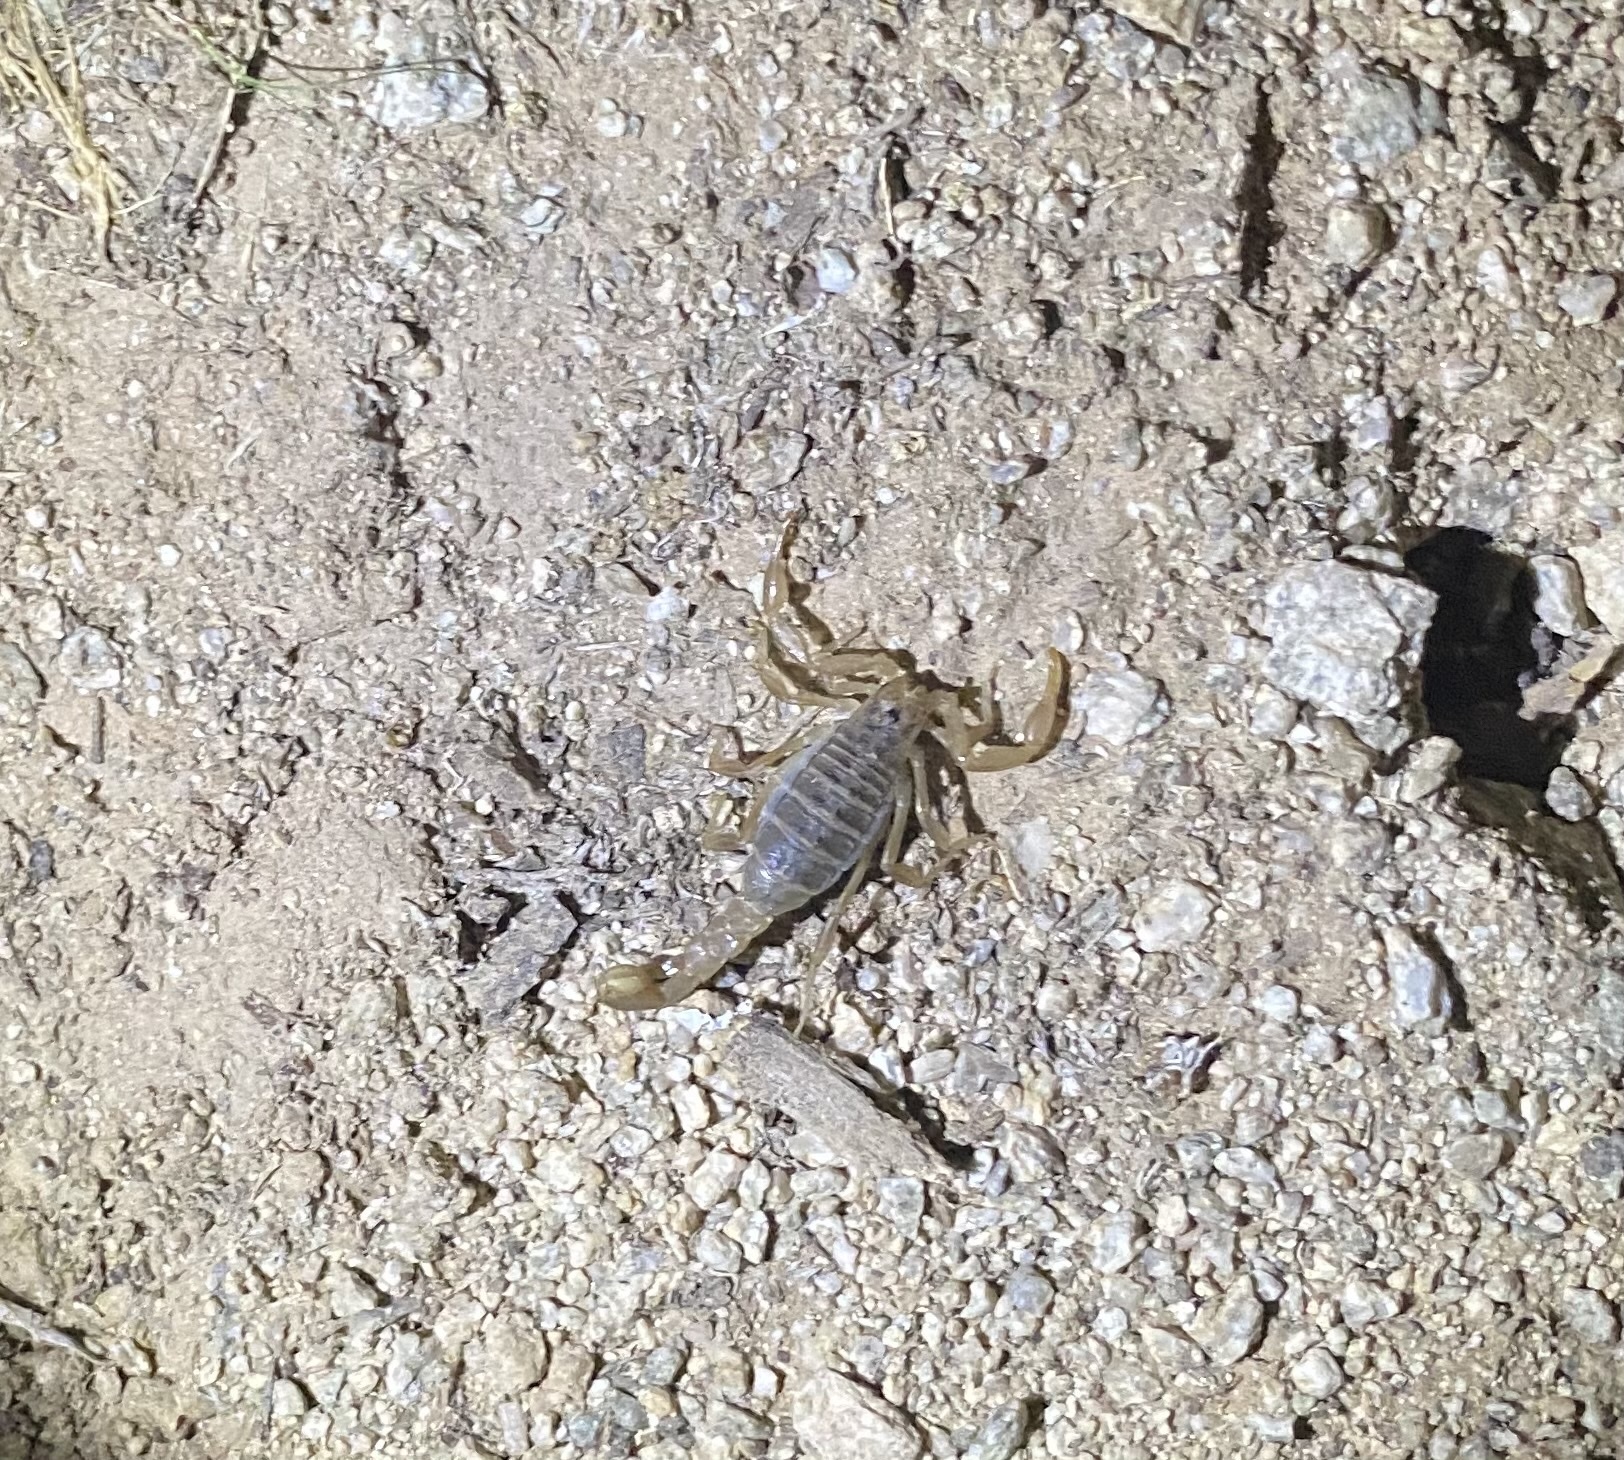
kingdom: Animalia
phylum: Arthropoda
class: Arachnida
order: Scorpiones
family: Vaejovidae
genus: Paravaejovis
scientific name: Paravaejovis spinigerus
